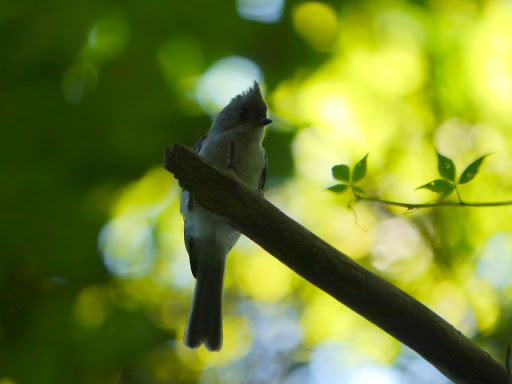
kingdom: Animalia
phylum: Chordata
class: Aves
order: Passeriformes
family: Paridae
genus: Baeolophus
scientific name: Baeolophus bicolor
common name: Tufted titmouse
